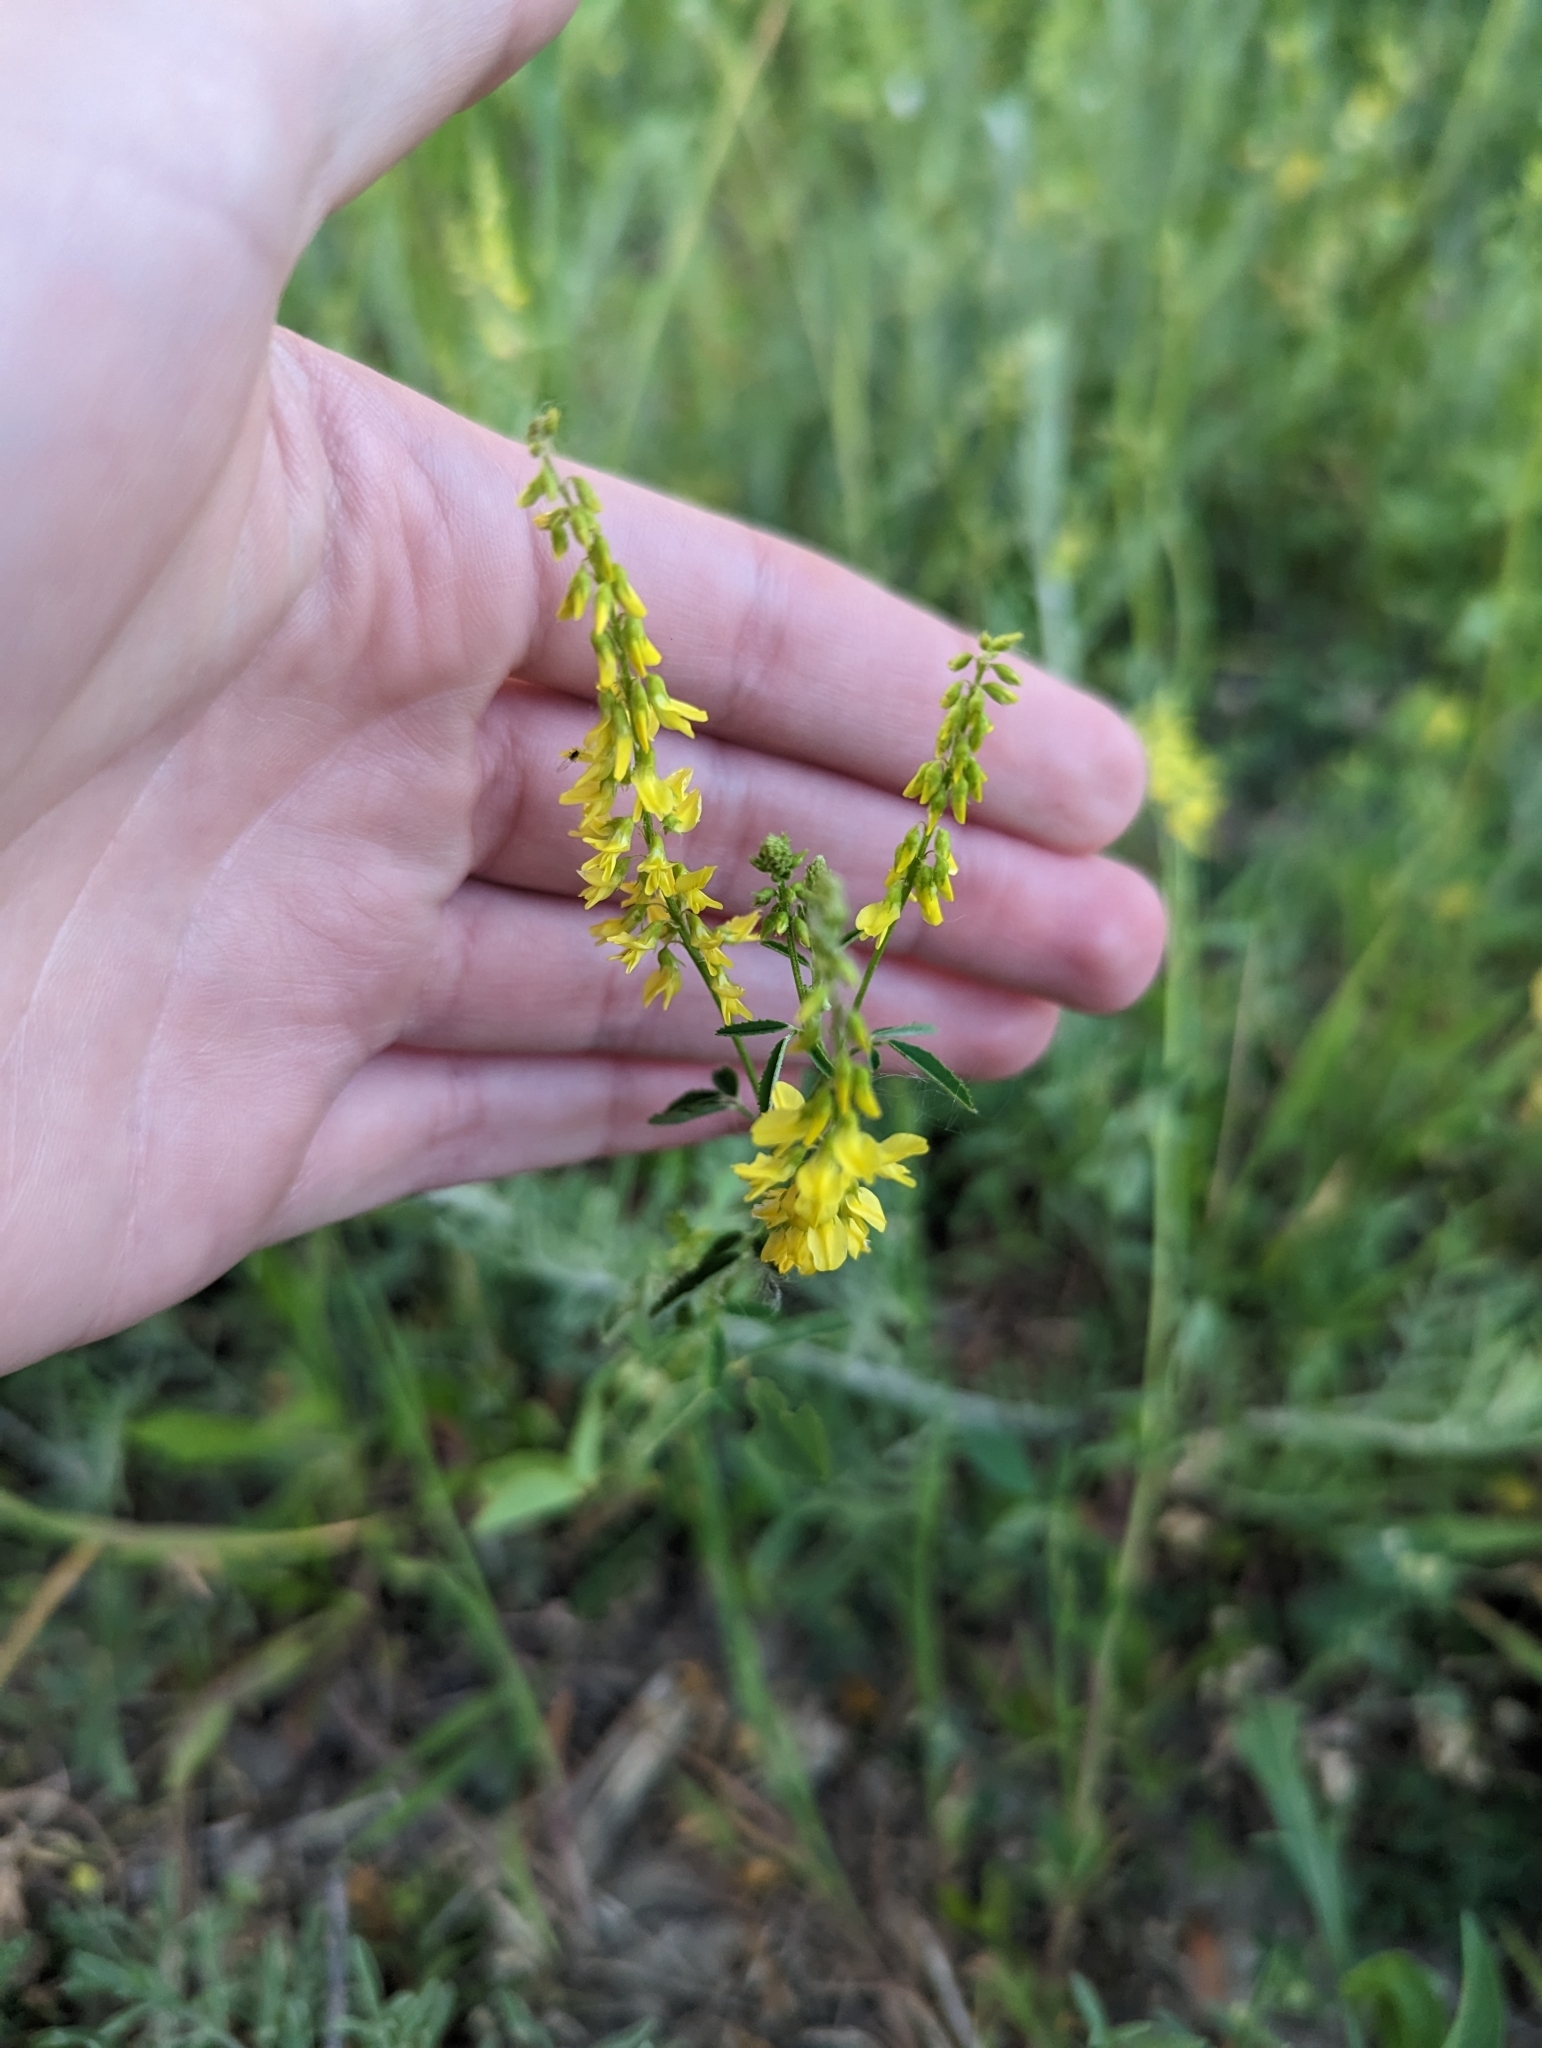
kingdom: Plantae
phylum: Tracheophyta
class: Magnoliopsida
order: Fabales
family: Fabaceae
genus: Melilotus
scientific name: Melilotus officinalis
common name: Sweetclover
